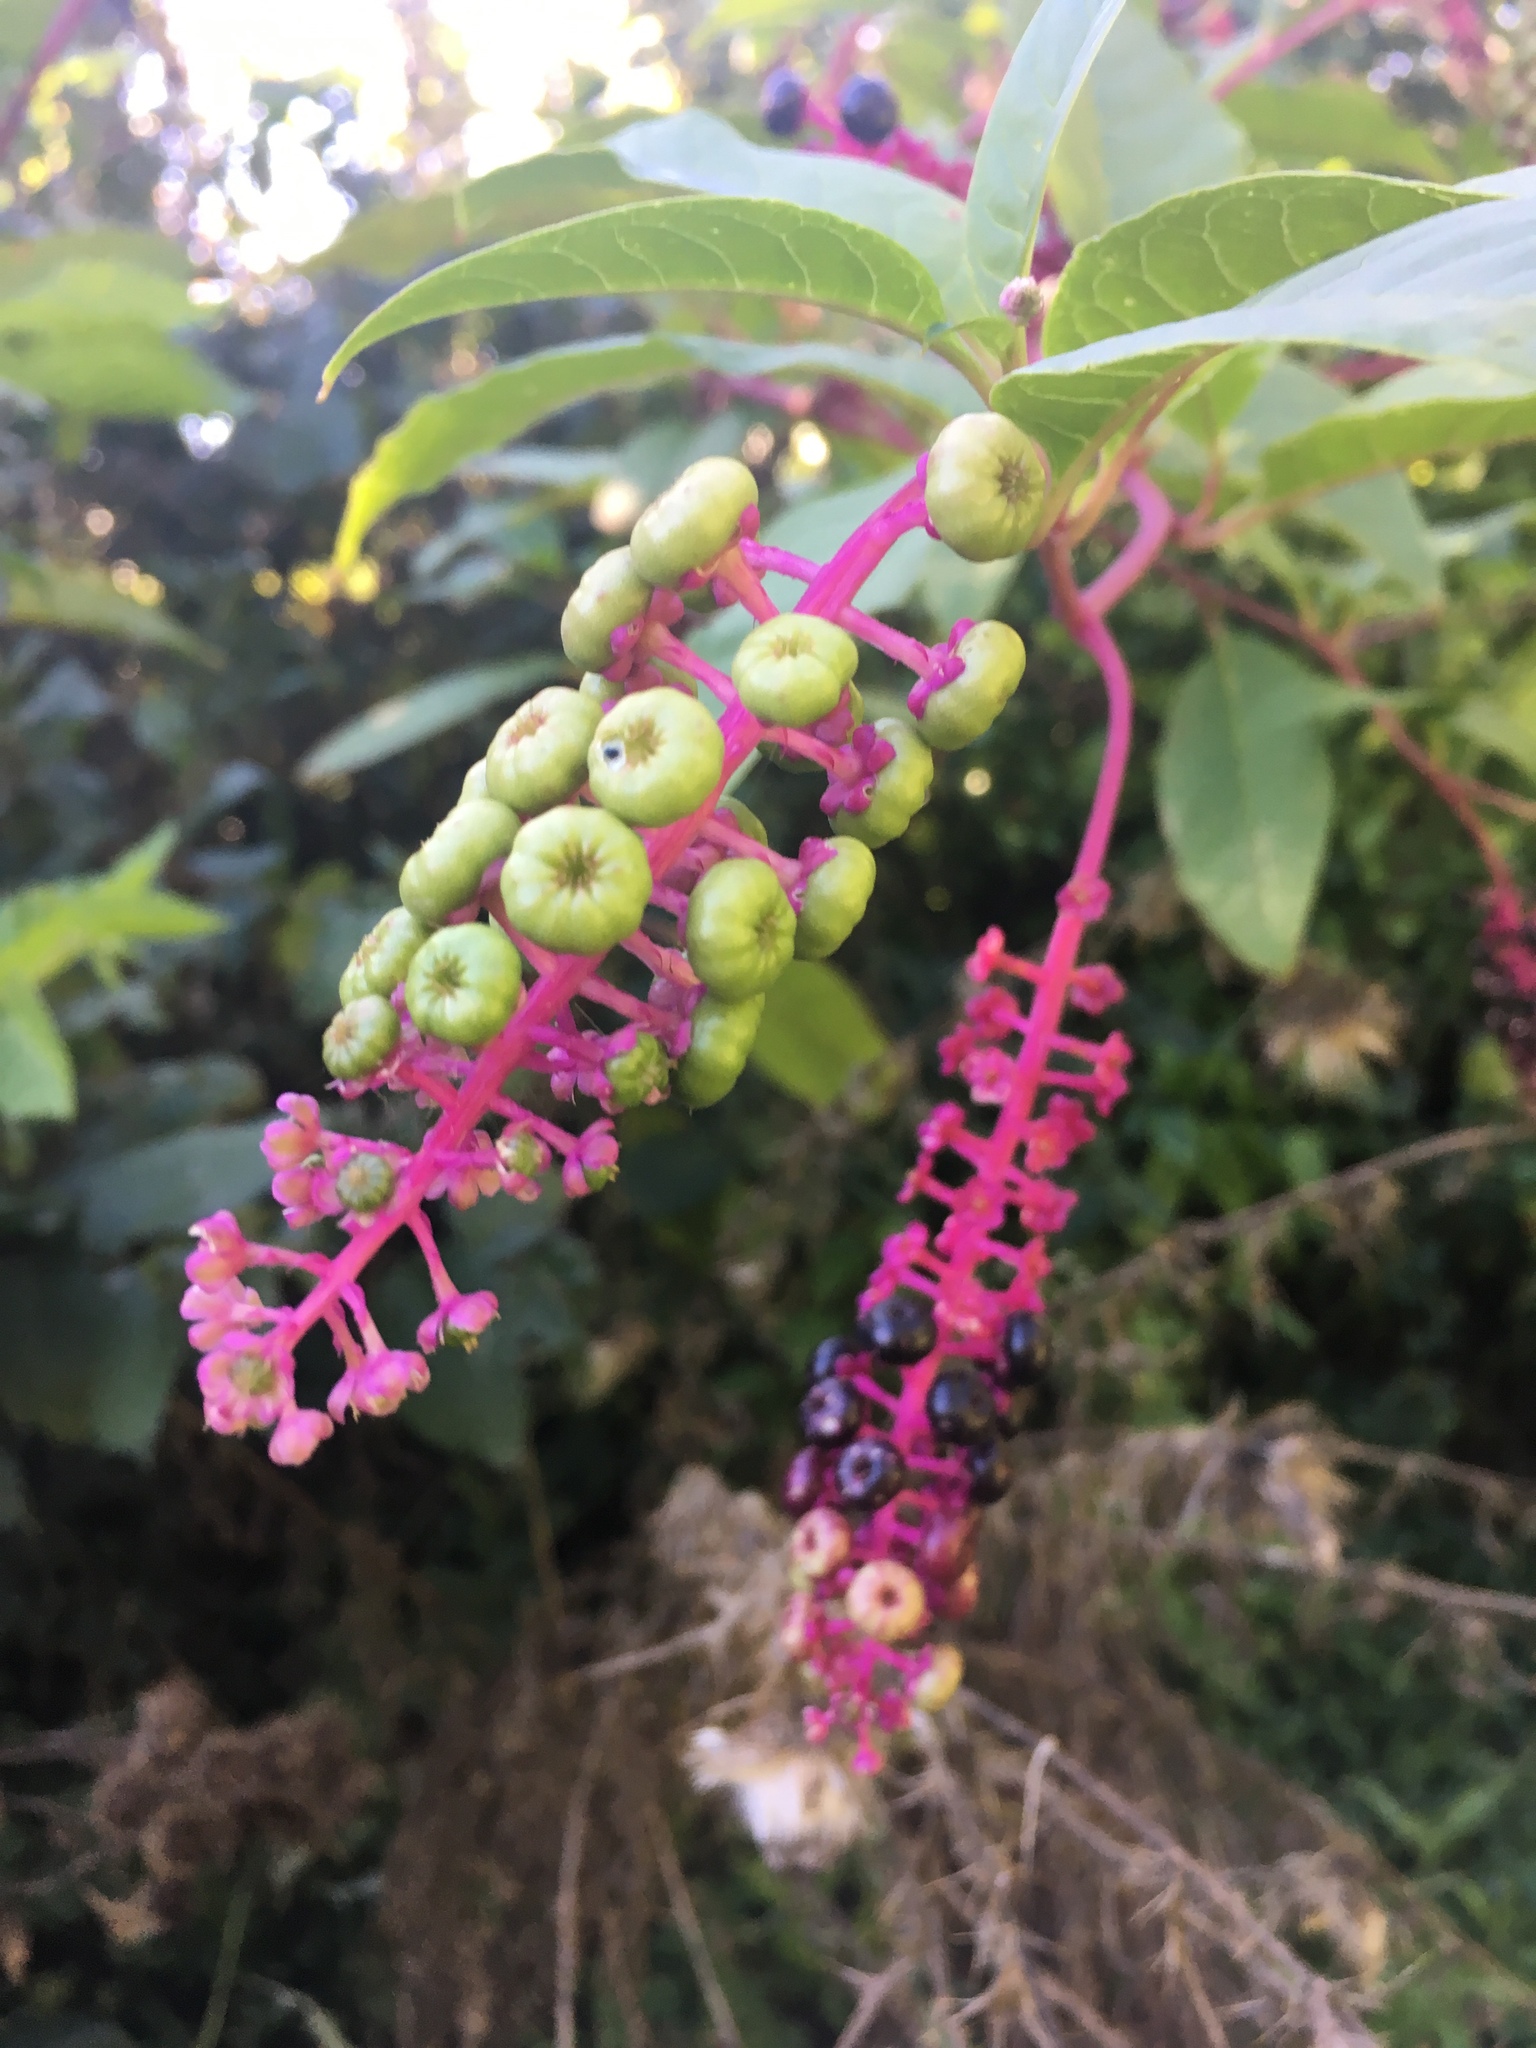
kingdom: Plantae
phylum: Tracheophyta
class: Magnoliopsida
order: Caryophyllales
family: Phytolaccaceae
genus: Phytolacca
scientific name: Phytolacca americana
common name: American pokeweed
